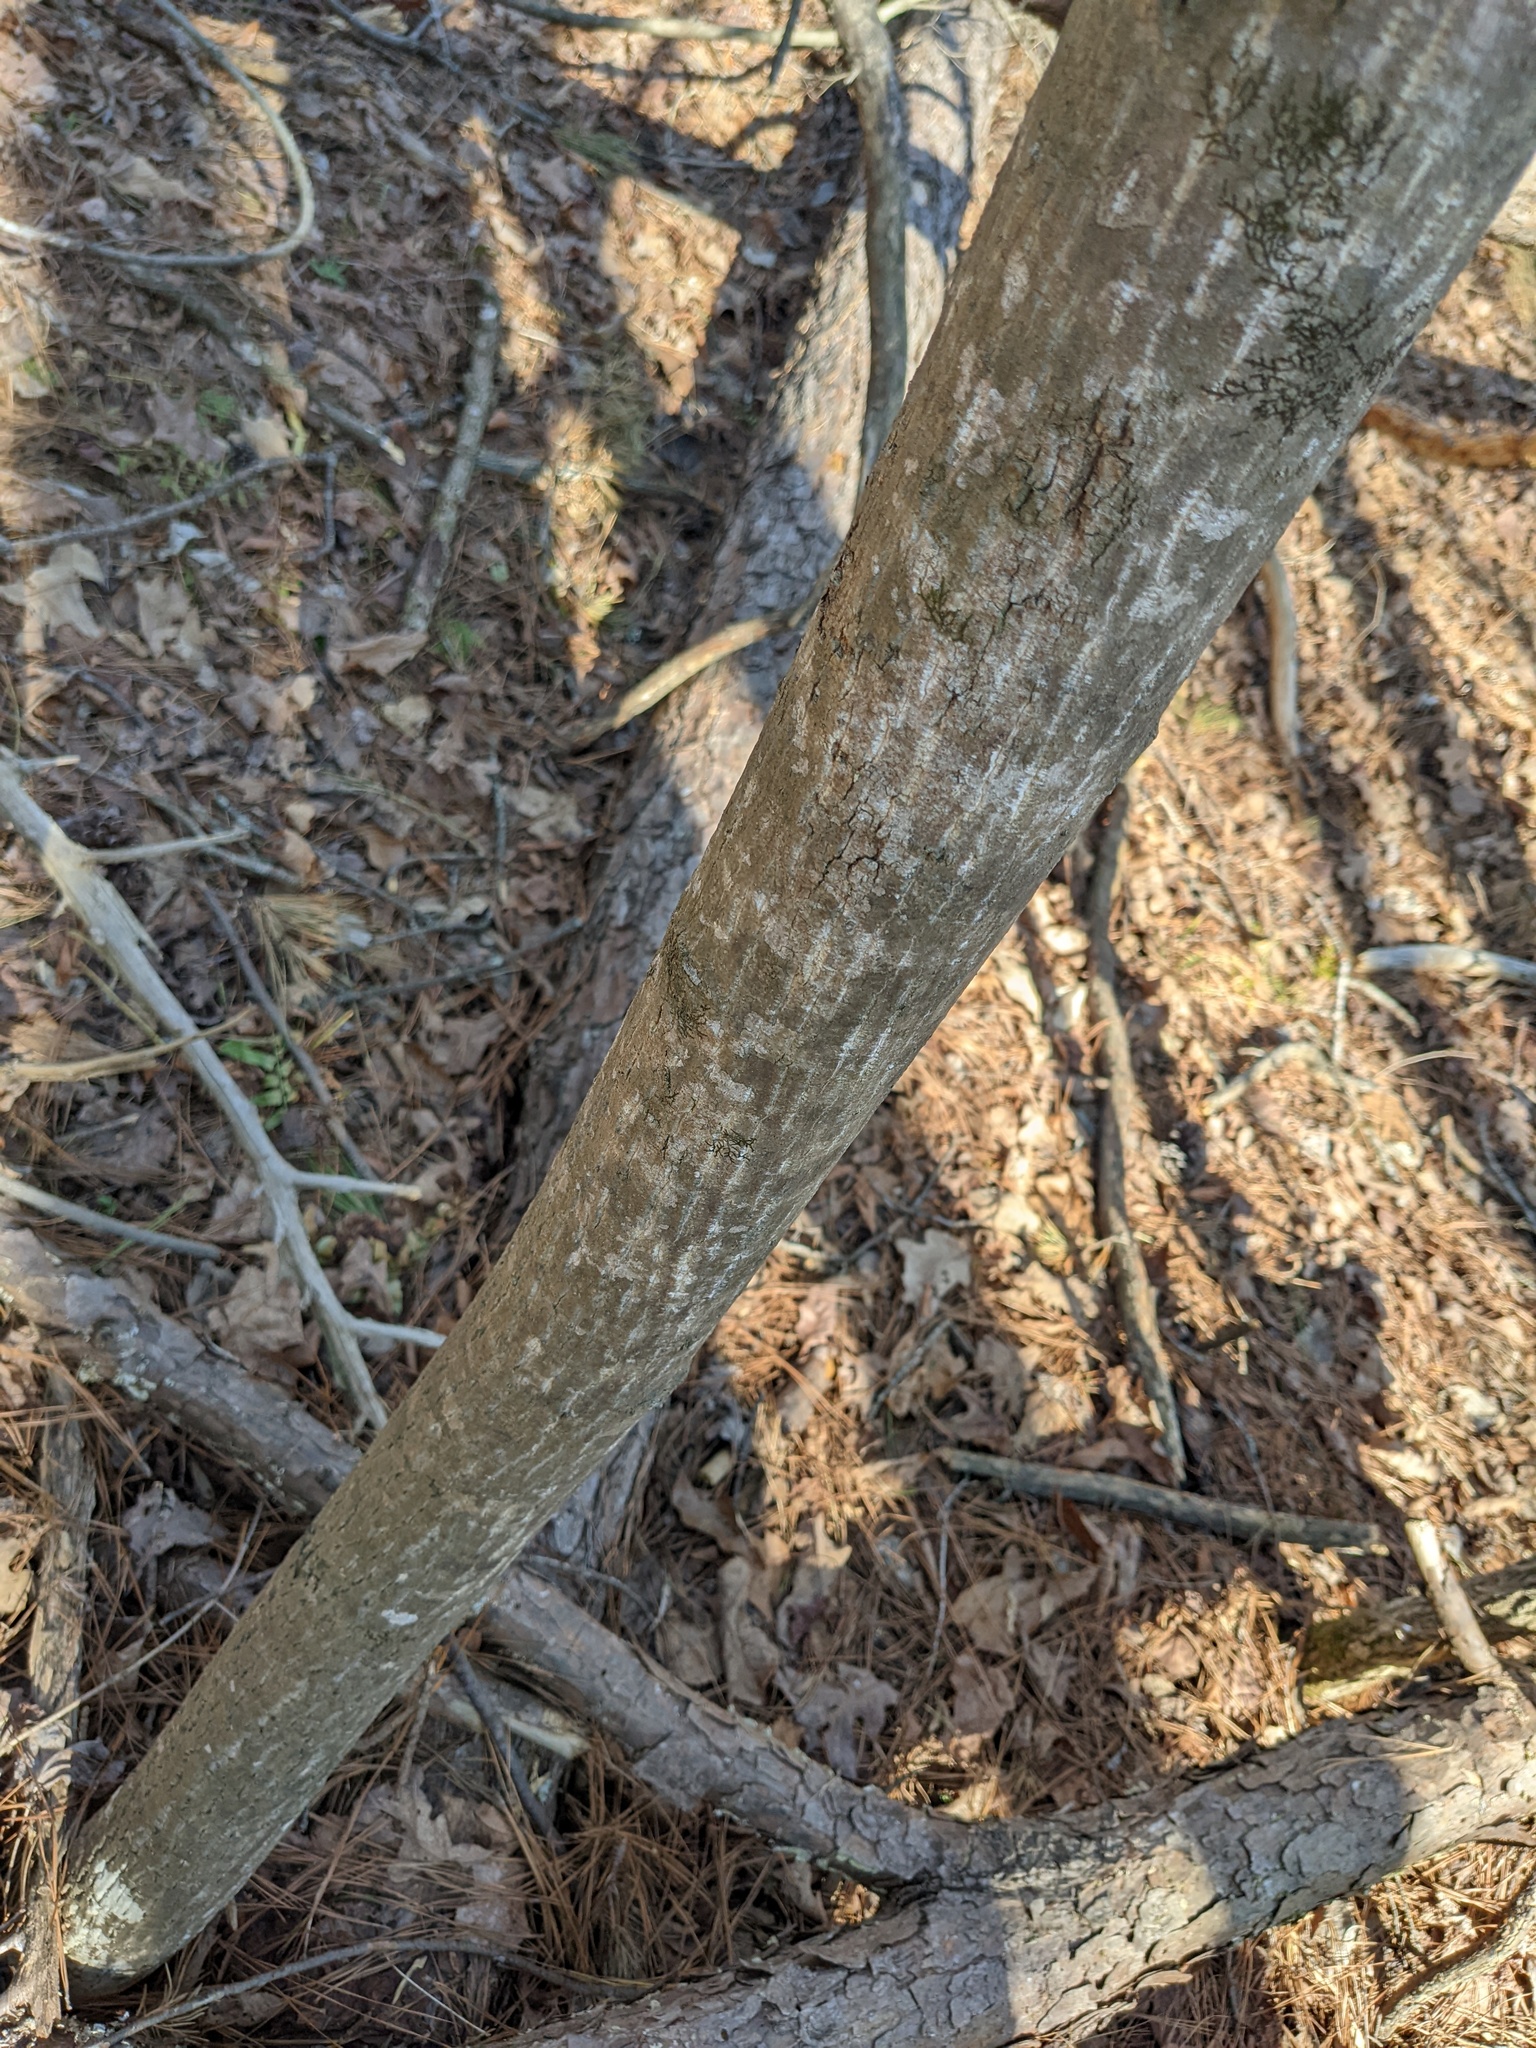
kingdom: Plantae
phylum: Tracheophyta
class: Magnoliopsida
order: Magnoliales
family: Magnoliaceae
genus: Liriodendron
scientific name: Liriodendron tulipifera
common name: Tulip tree
